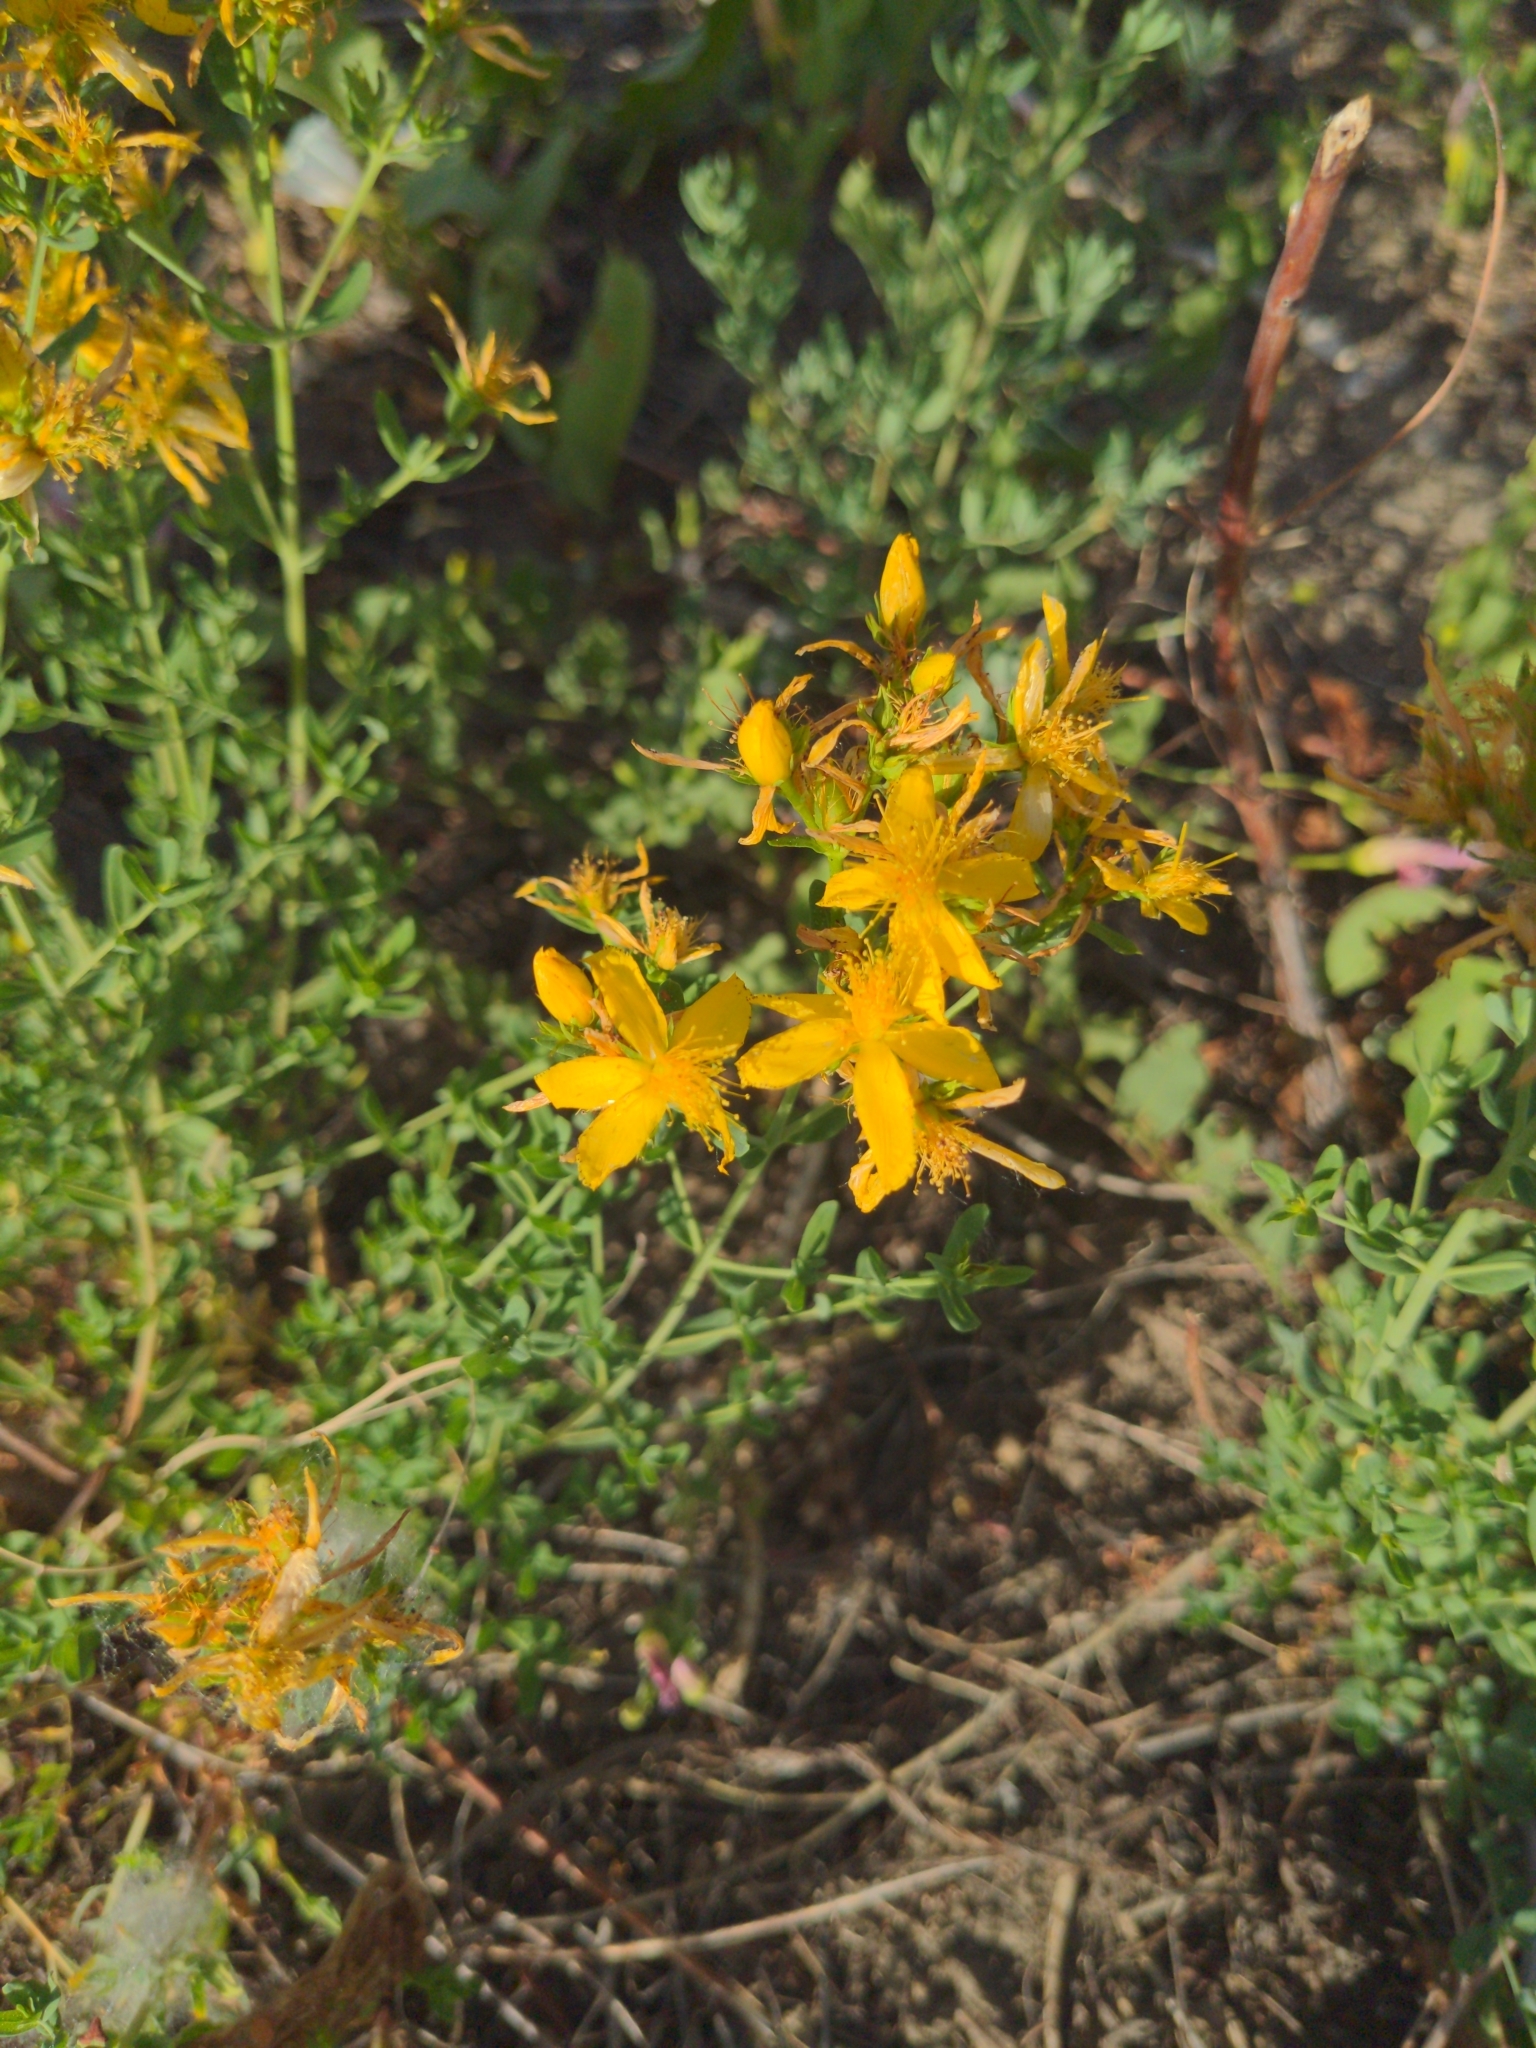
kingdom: Plantae
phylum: Tracheophyta
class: Magnoliopsida
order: Malpighiales
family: Hypericaceae
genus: Hypericum
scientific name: Hypericum perforatum
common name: Common st. johnswort
